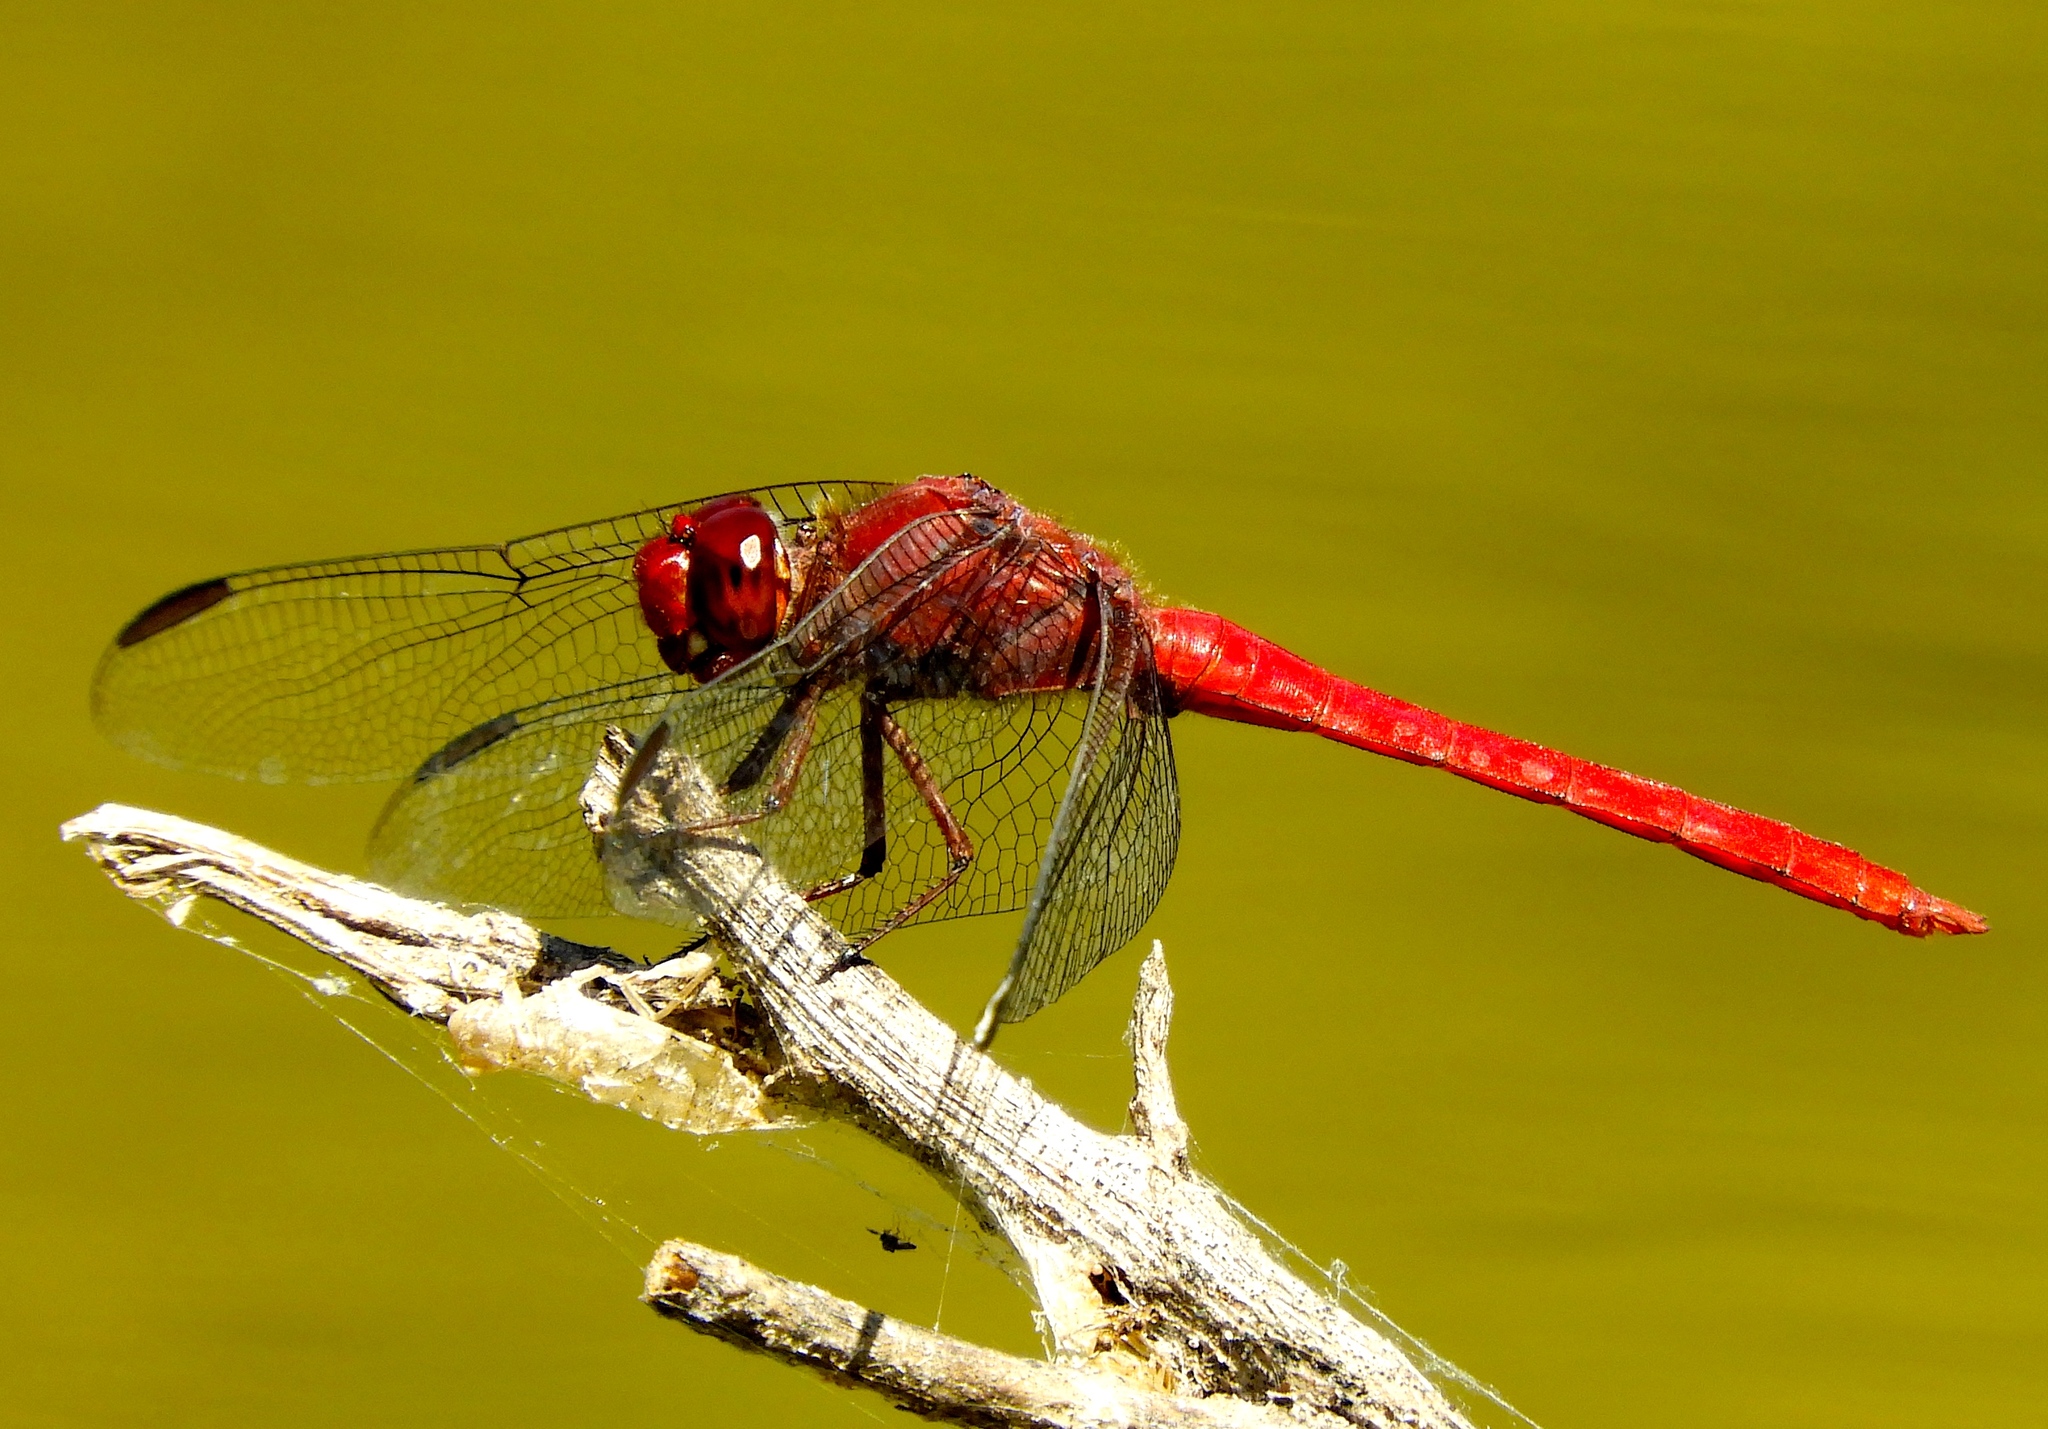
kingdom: Animalia
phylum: Arthropoda
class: Insecta
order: Odonata
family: Libellulidae
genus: Orthemis
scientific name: Orthemis discolor
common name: Carmine skimmer
